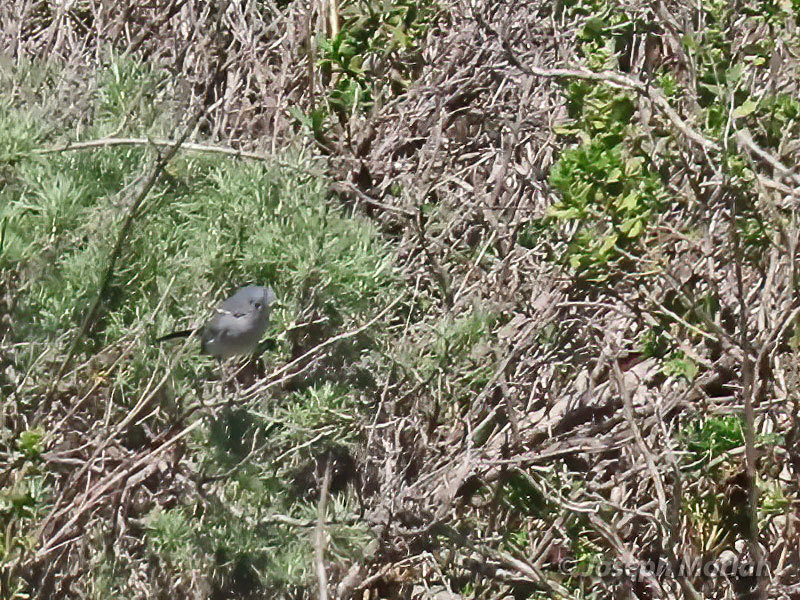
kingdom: Animalia
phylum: Chordata
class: Aves
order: Passeriformes
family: Polioptilidae
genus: Polioptila
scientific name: Polioptila caerulea
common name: Blue-gray gnatcatcher
